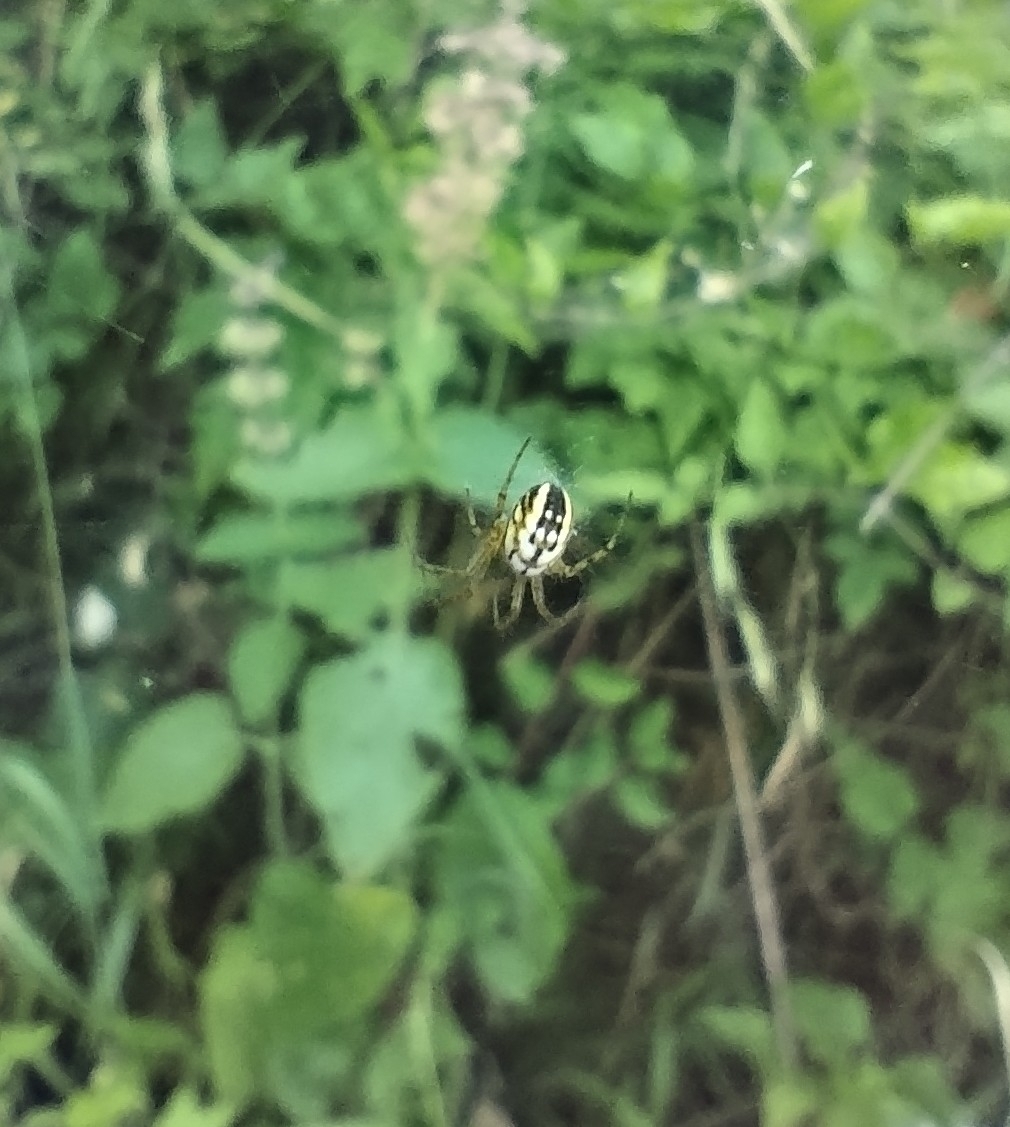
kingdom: Animalia
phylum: Arthropoda
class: Arachnida
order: Araneae
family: Araneidae
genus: Mangora
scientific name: Mangora acalypha
